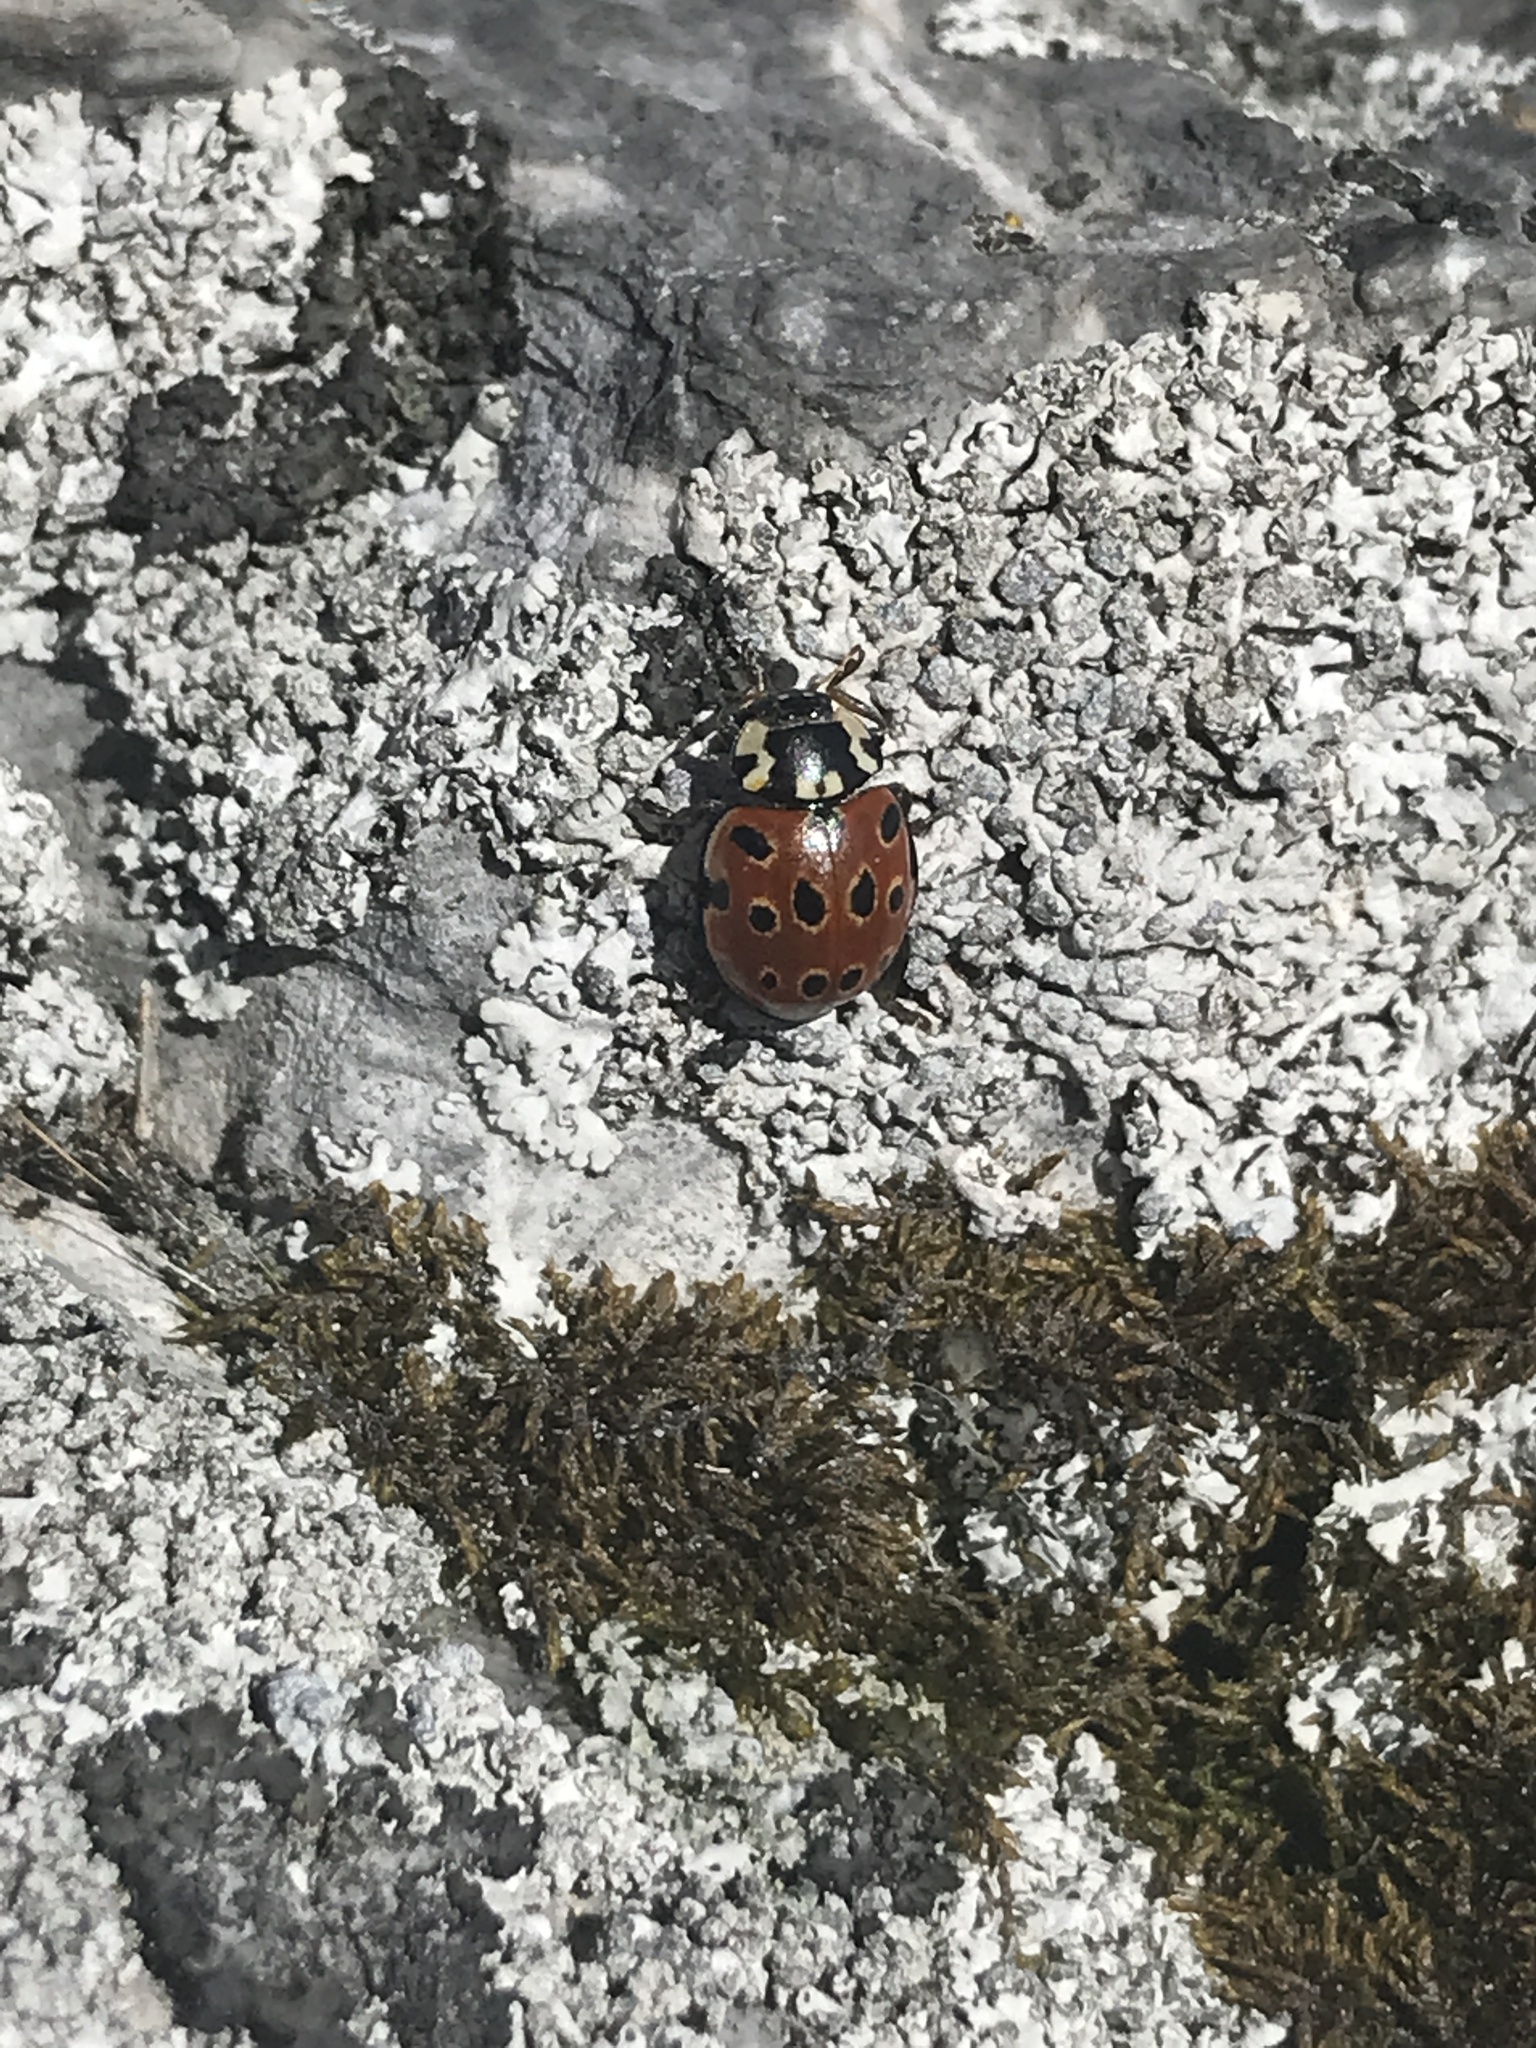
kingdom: Animalia
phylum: Arthropoda
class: Insecta
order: Coleoptera
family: Coccinellidae
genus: Anatis
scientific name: Anatis ocellata
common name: Eyed ladybird
